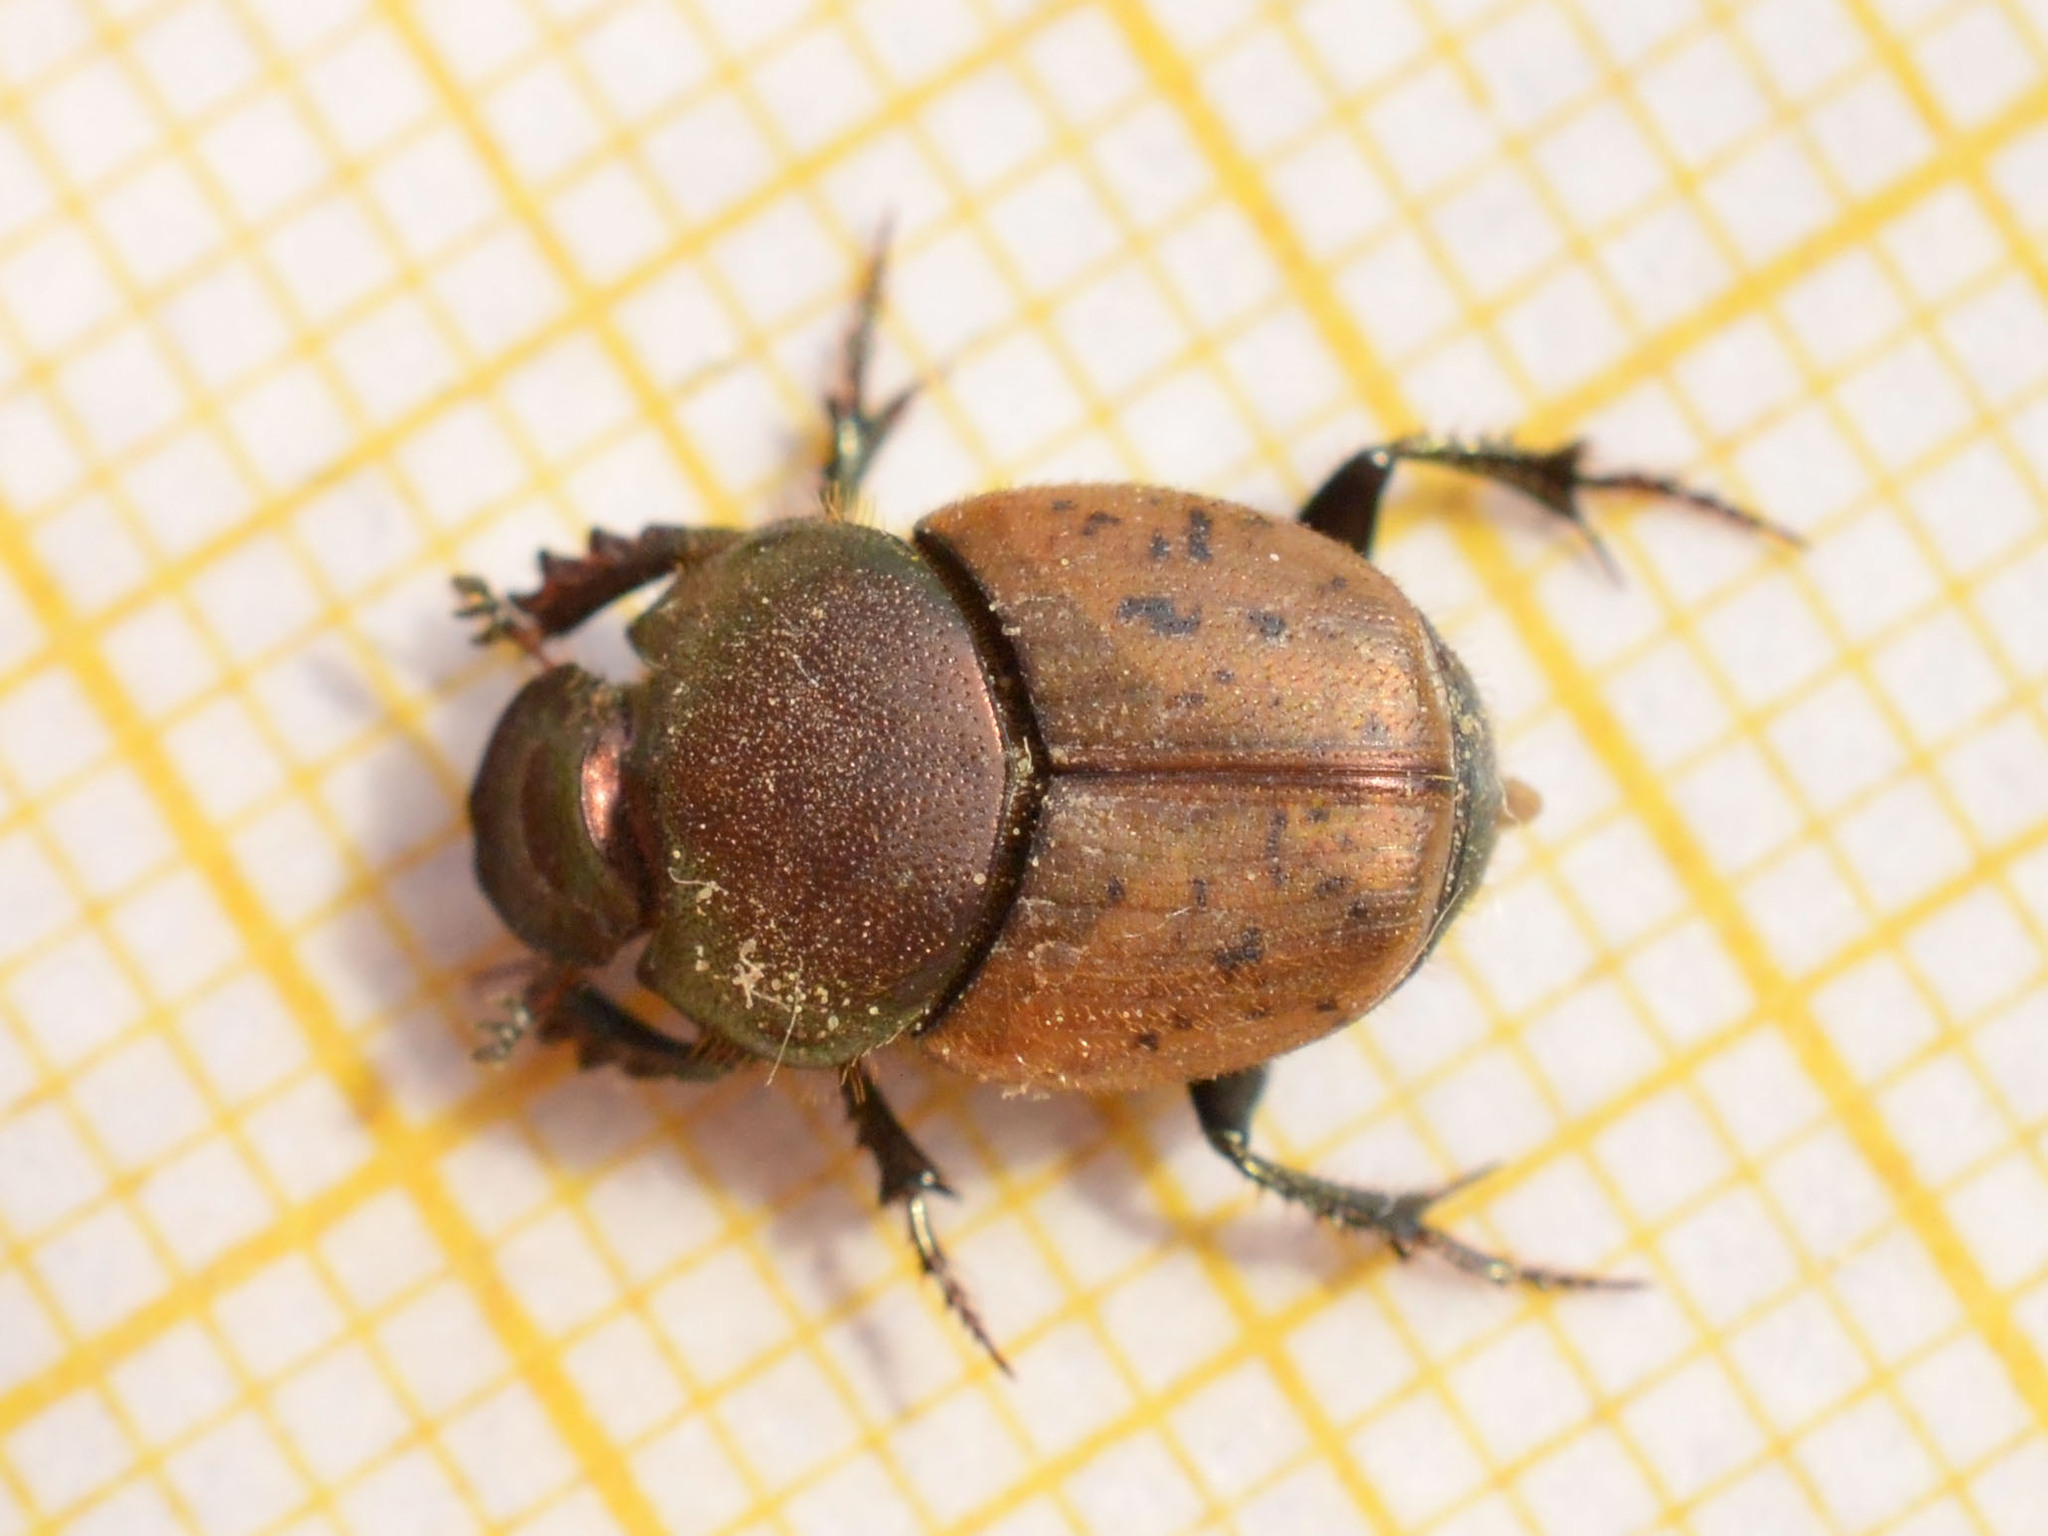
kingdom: Animalia
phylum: Arthropoda
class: Insecta
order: Coleoptera
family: Scarabaeidae
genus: Onthophagus
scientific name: Onthophagus coenobita
